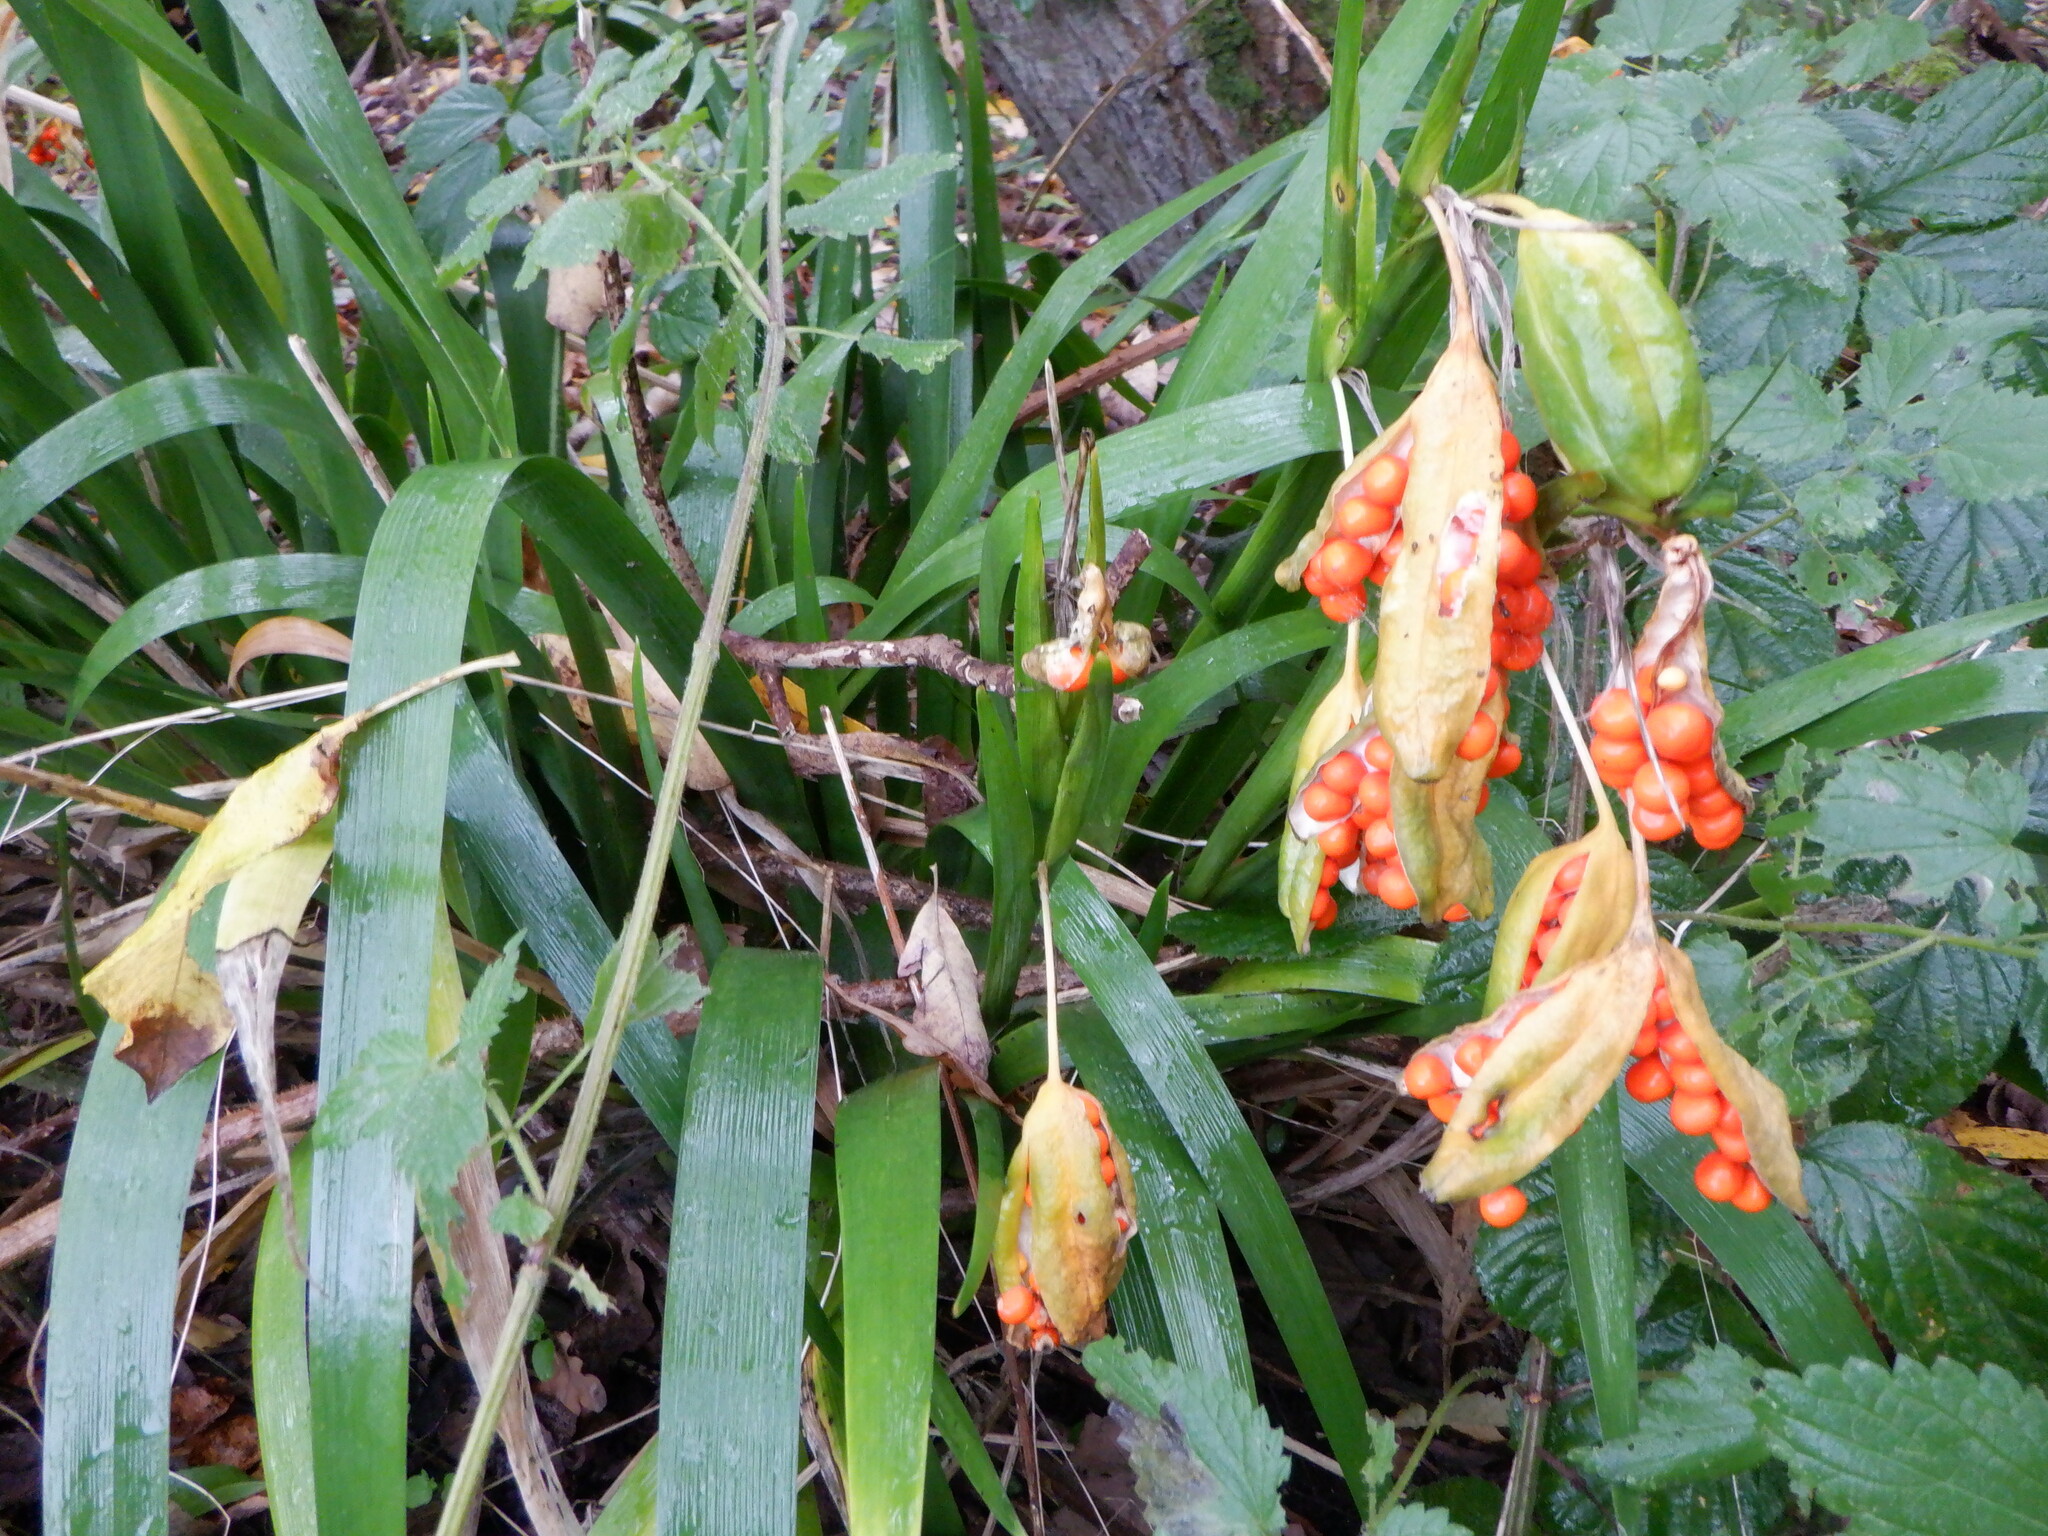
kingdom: Plantae
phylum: Tracheophyta
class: Liliopsida
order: Asparagales
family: Iridaceae
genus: Iris
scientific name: Iris foetidissima
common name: Stinking iris
